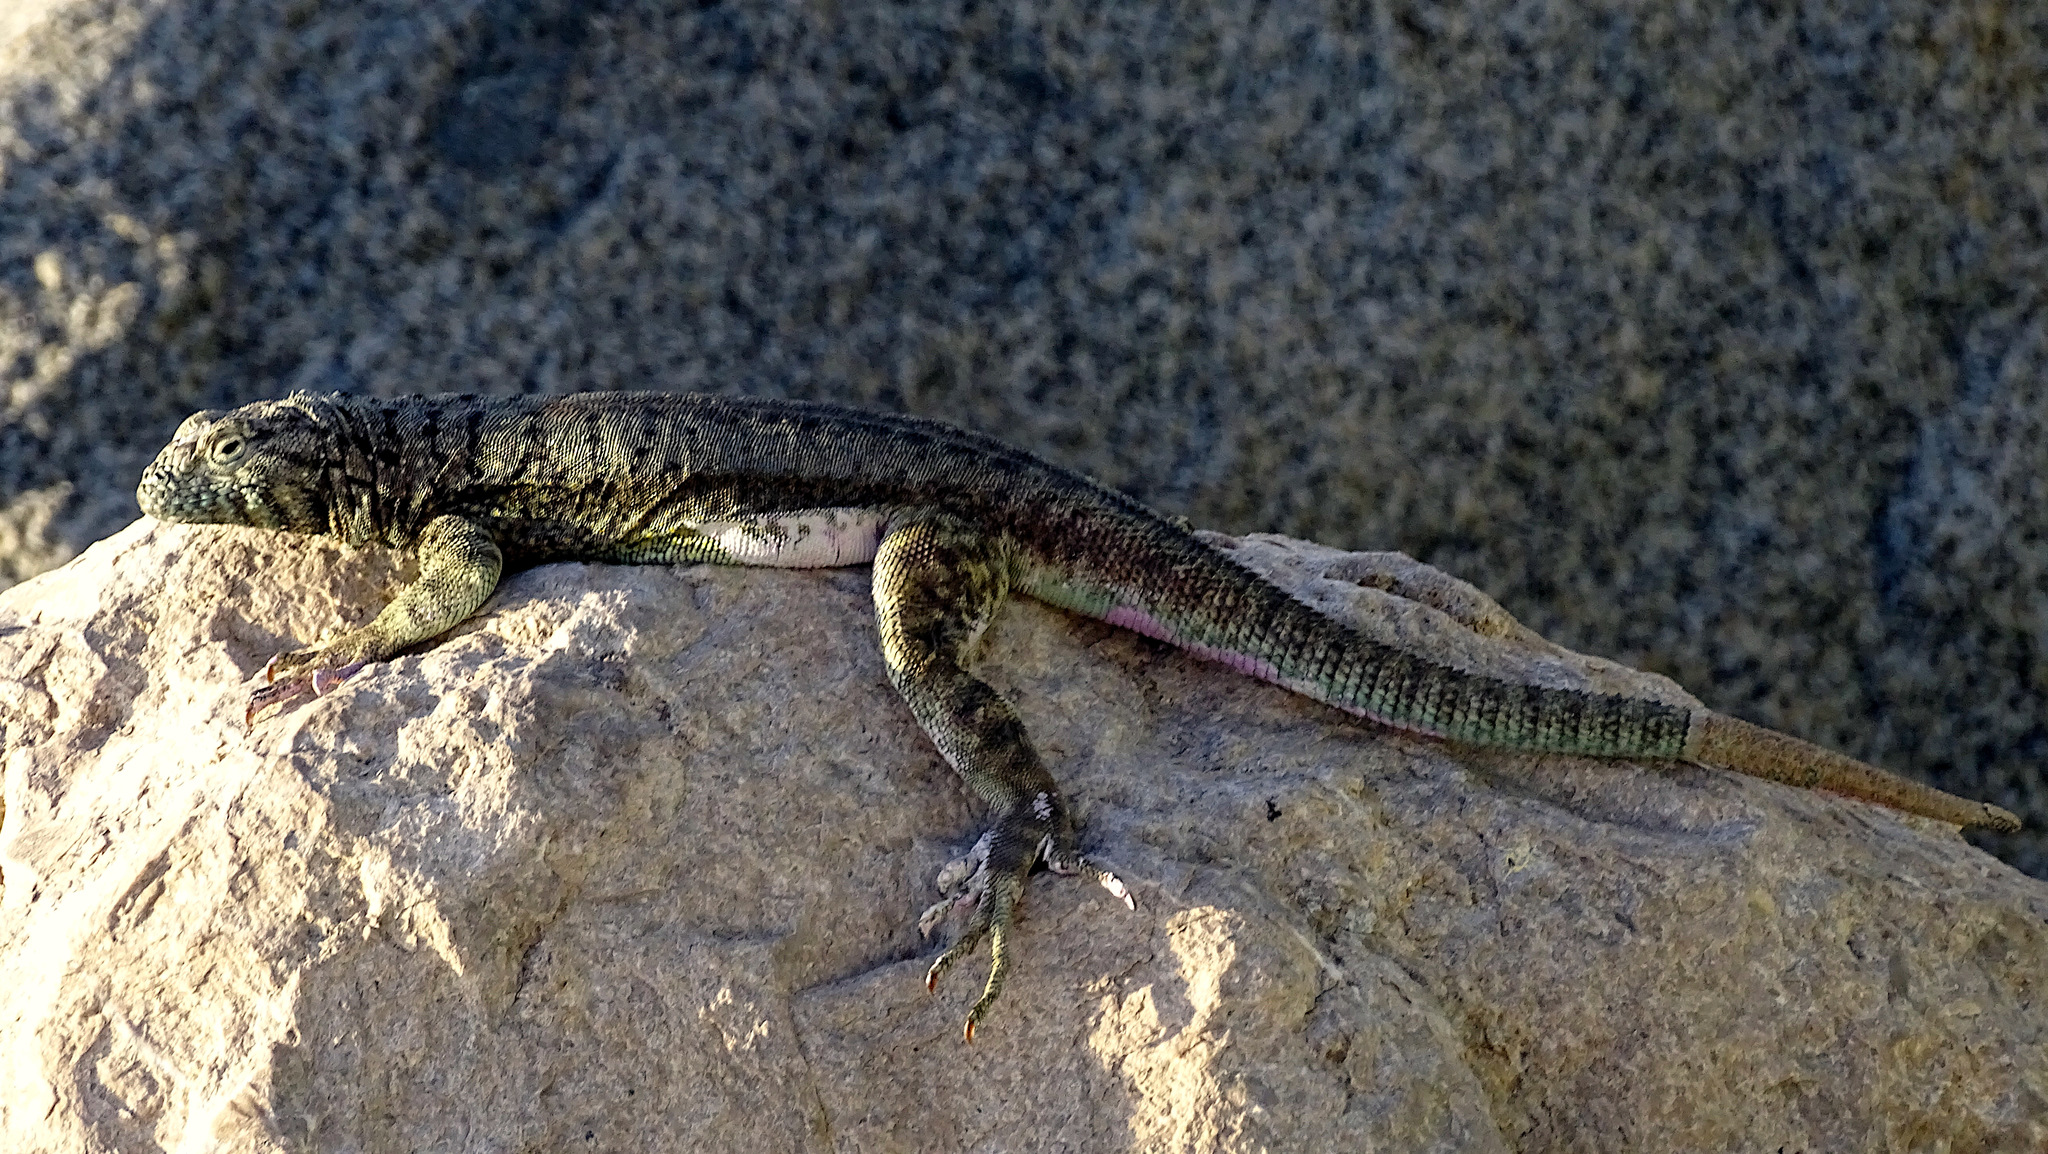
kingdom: Animalia
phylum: Chordata
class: Squamata
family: Tropiduridae
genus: Microlophus
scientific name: Microlophus atacamensis
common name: Atacamen pacific iguana
